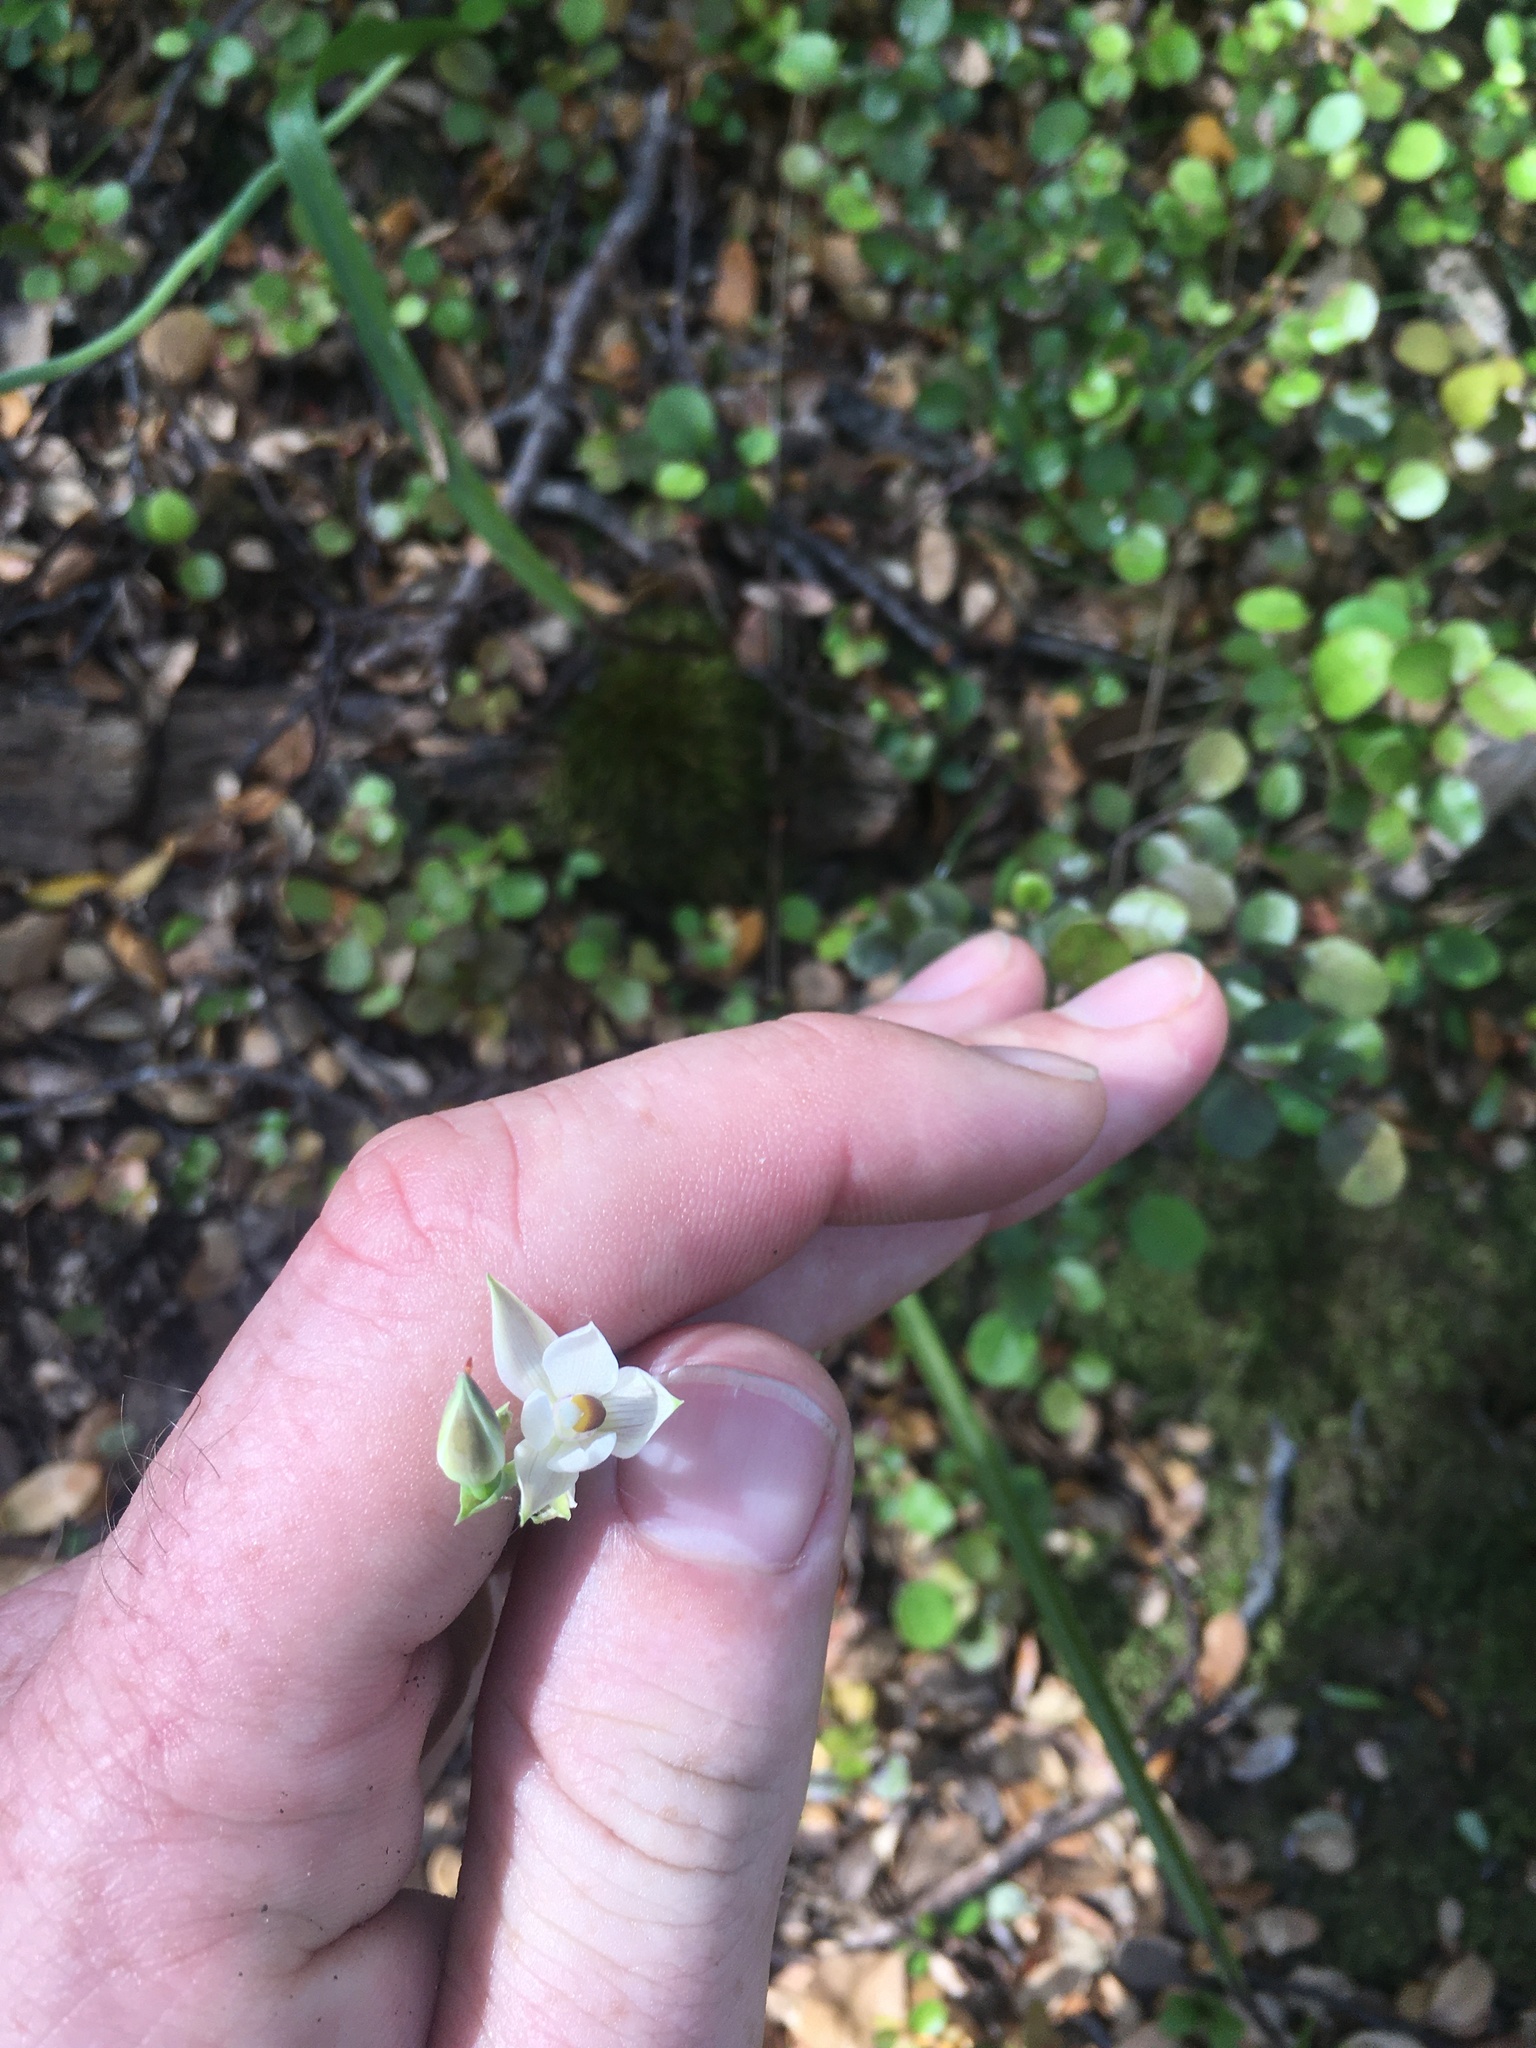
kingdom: Plantae
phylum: Tracheophyta
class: Liliopsida
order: Asparagales
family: Orchidaceae
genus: Thelymitra
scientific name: Thelymitra longifolia
